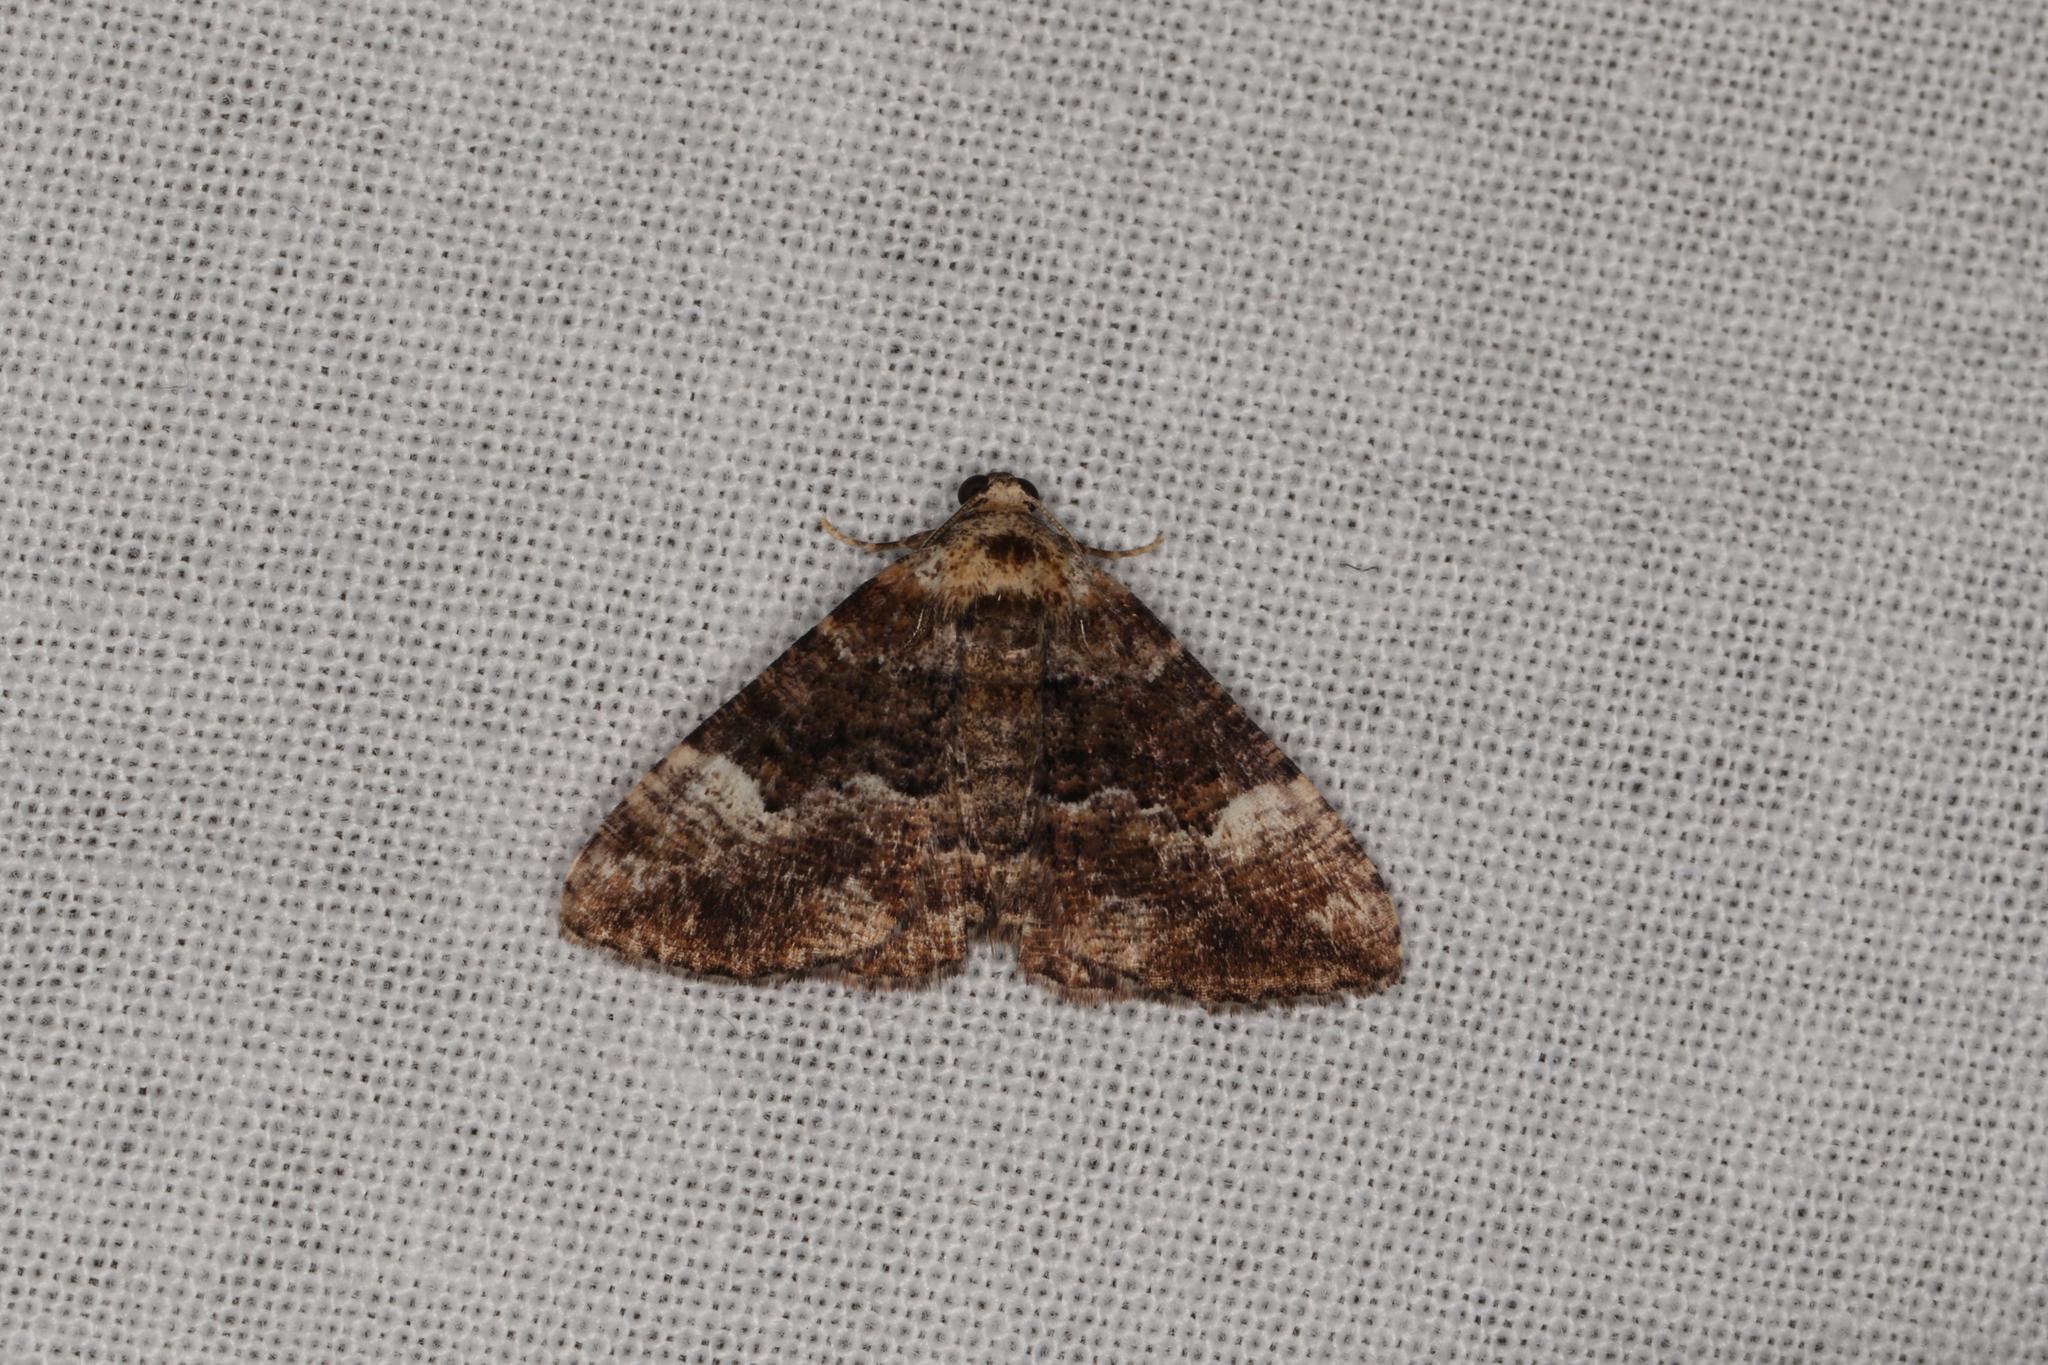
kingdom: Animalia
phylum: Arthropoda
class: Insecta
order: Lepidoptera
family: Geometridae
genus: Gastrina
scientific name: Gastrina cristaria
